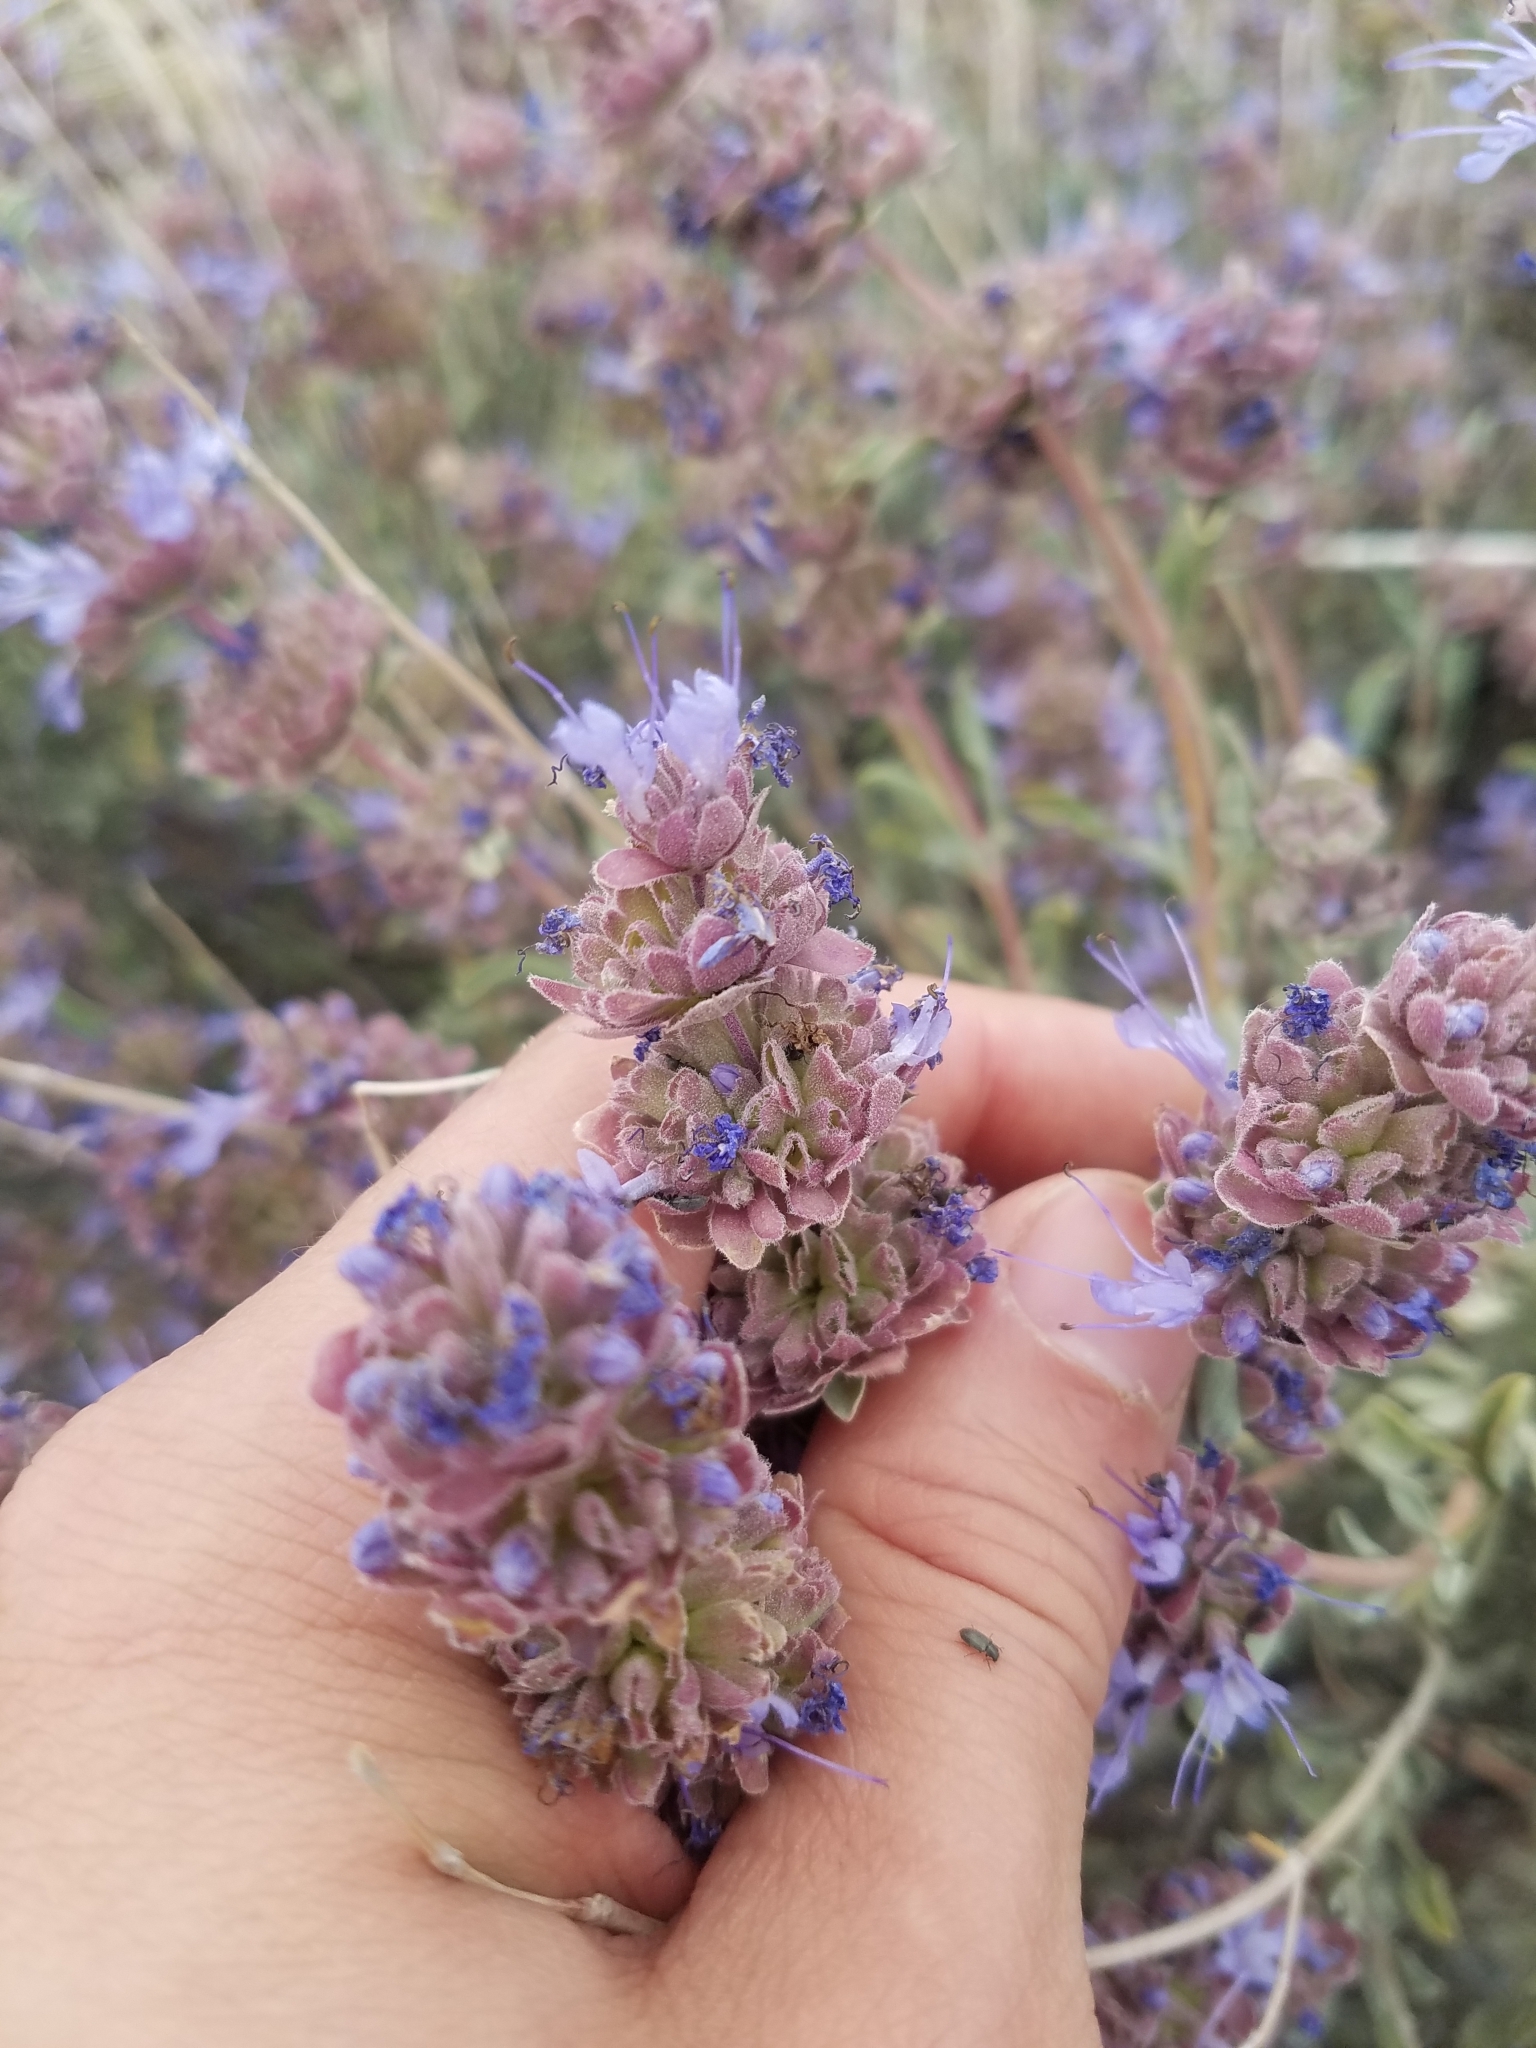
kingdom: Plantae
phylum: Tracheophyta
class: Magnoliopsida
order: Lamiales
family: Lamiaceae
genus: Salvia
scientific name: Salvia dorrii
